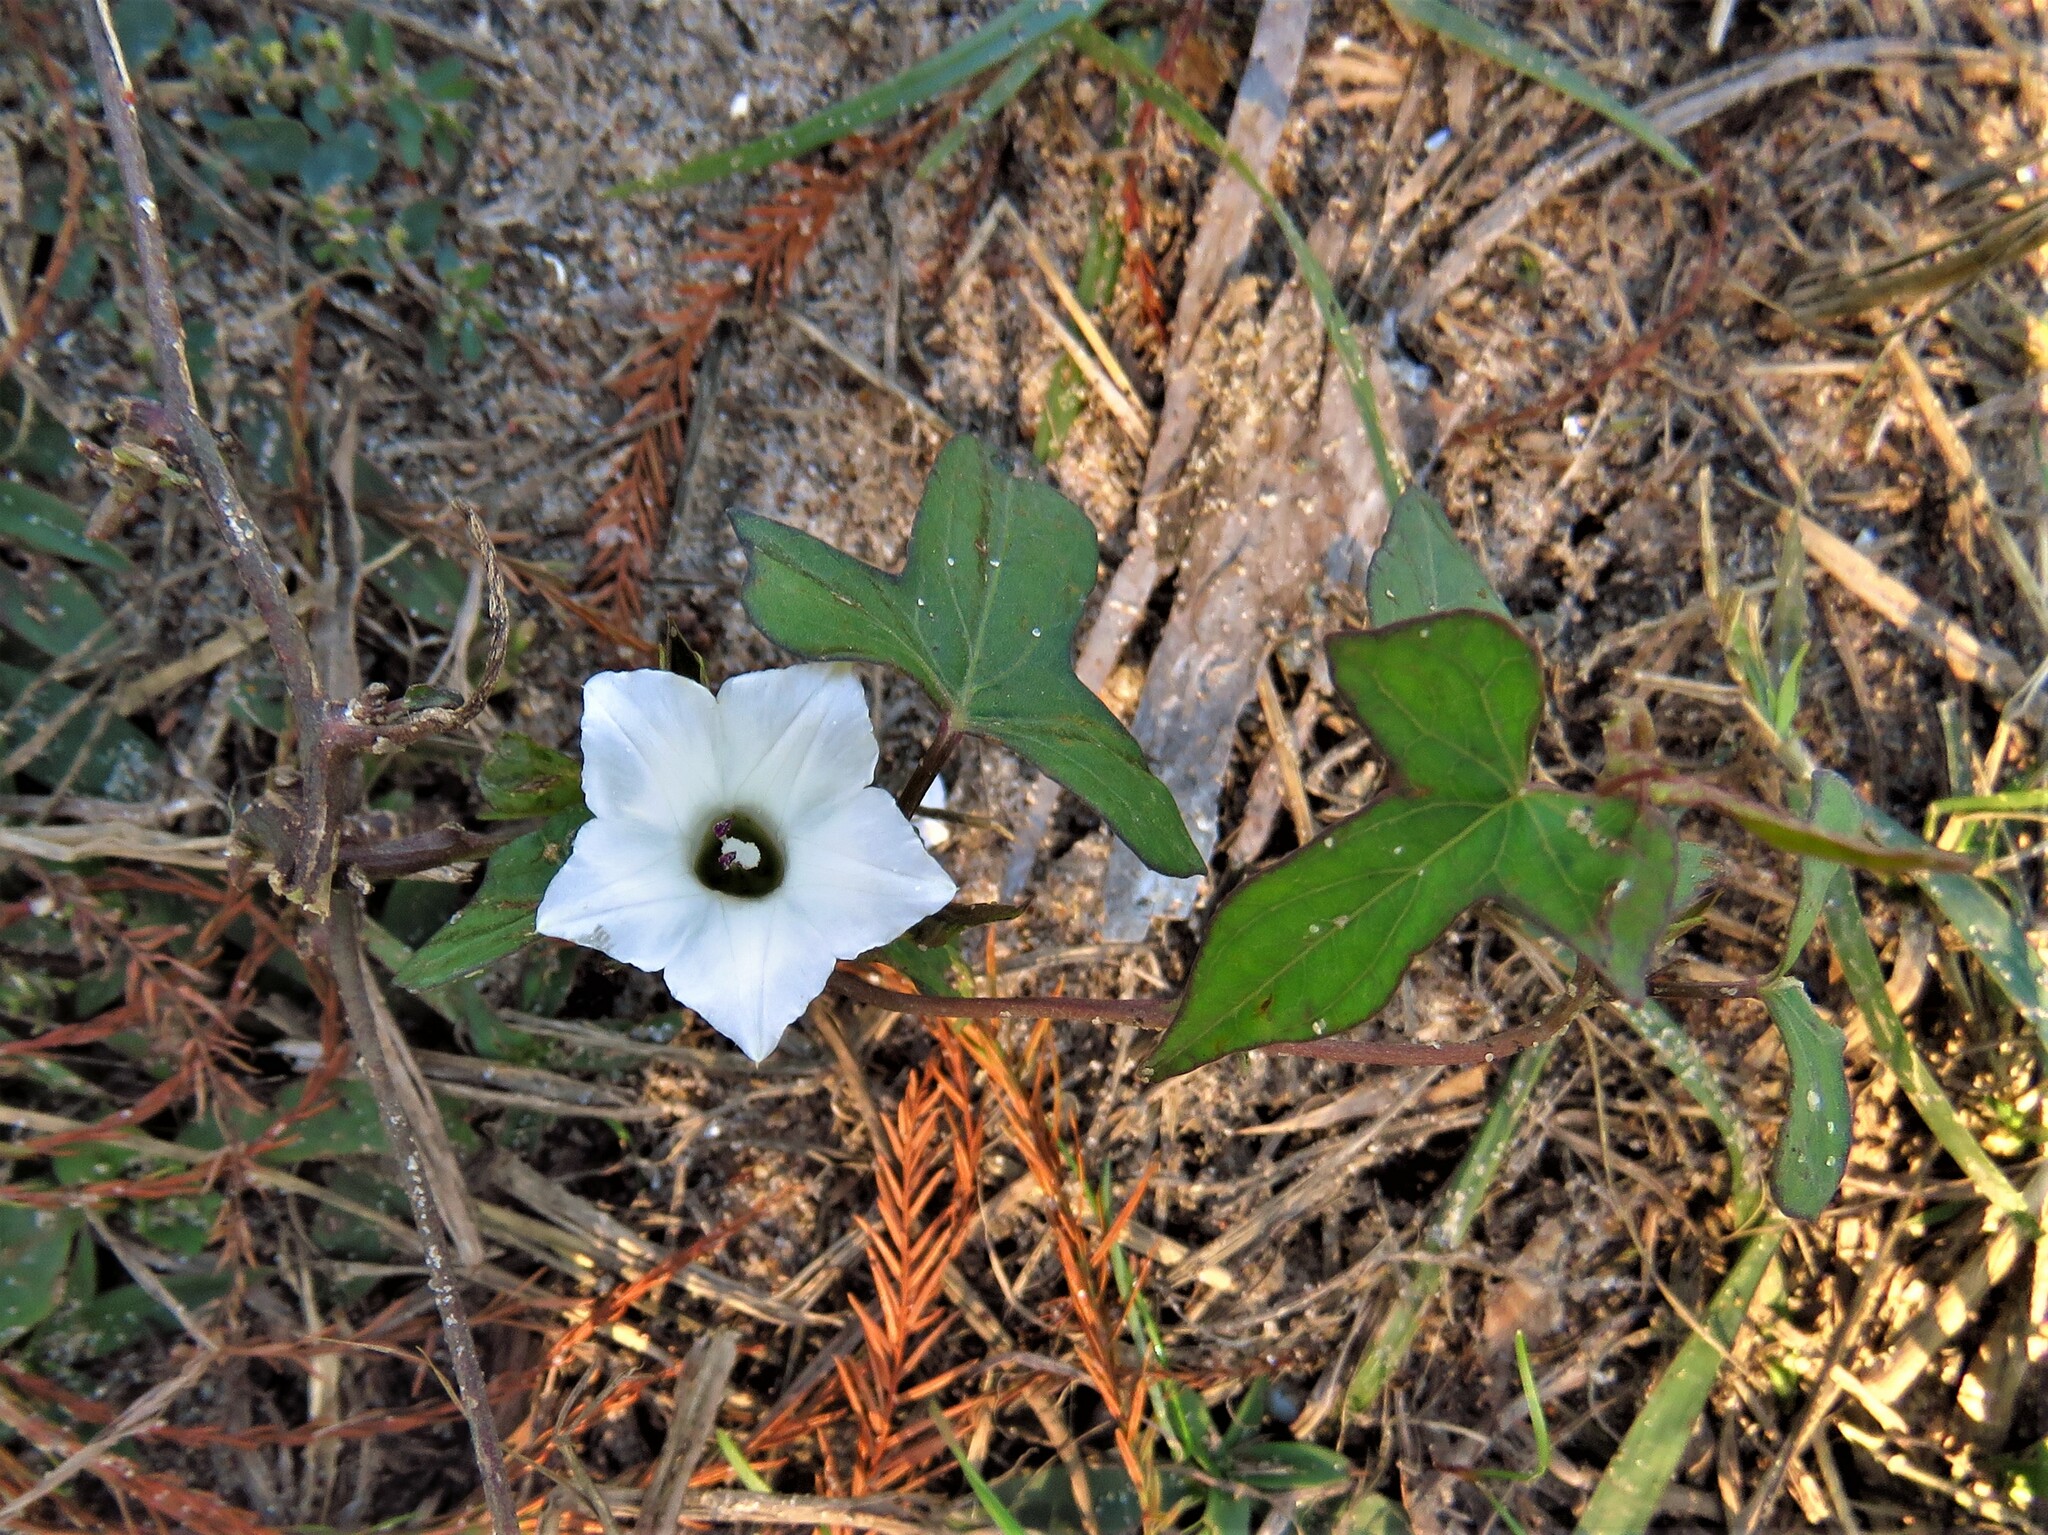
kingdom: Plantae
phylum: Tracheophyta
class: Magnoliopsida
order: Solanales
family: Convolvulaceae
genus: Ipomoea
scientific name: Ipomoea lacunosa
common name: White morning-glory
